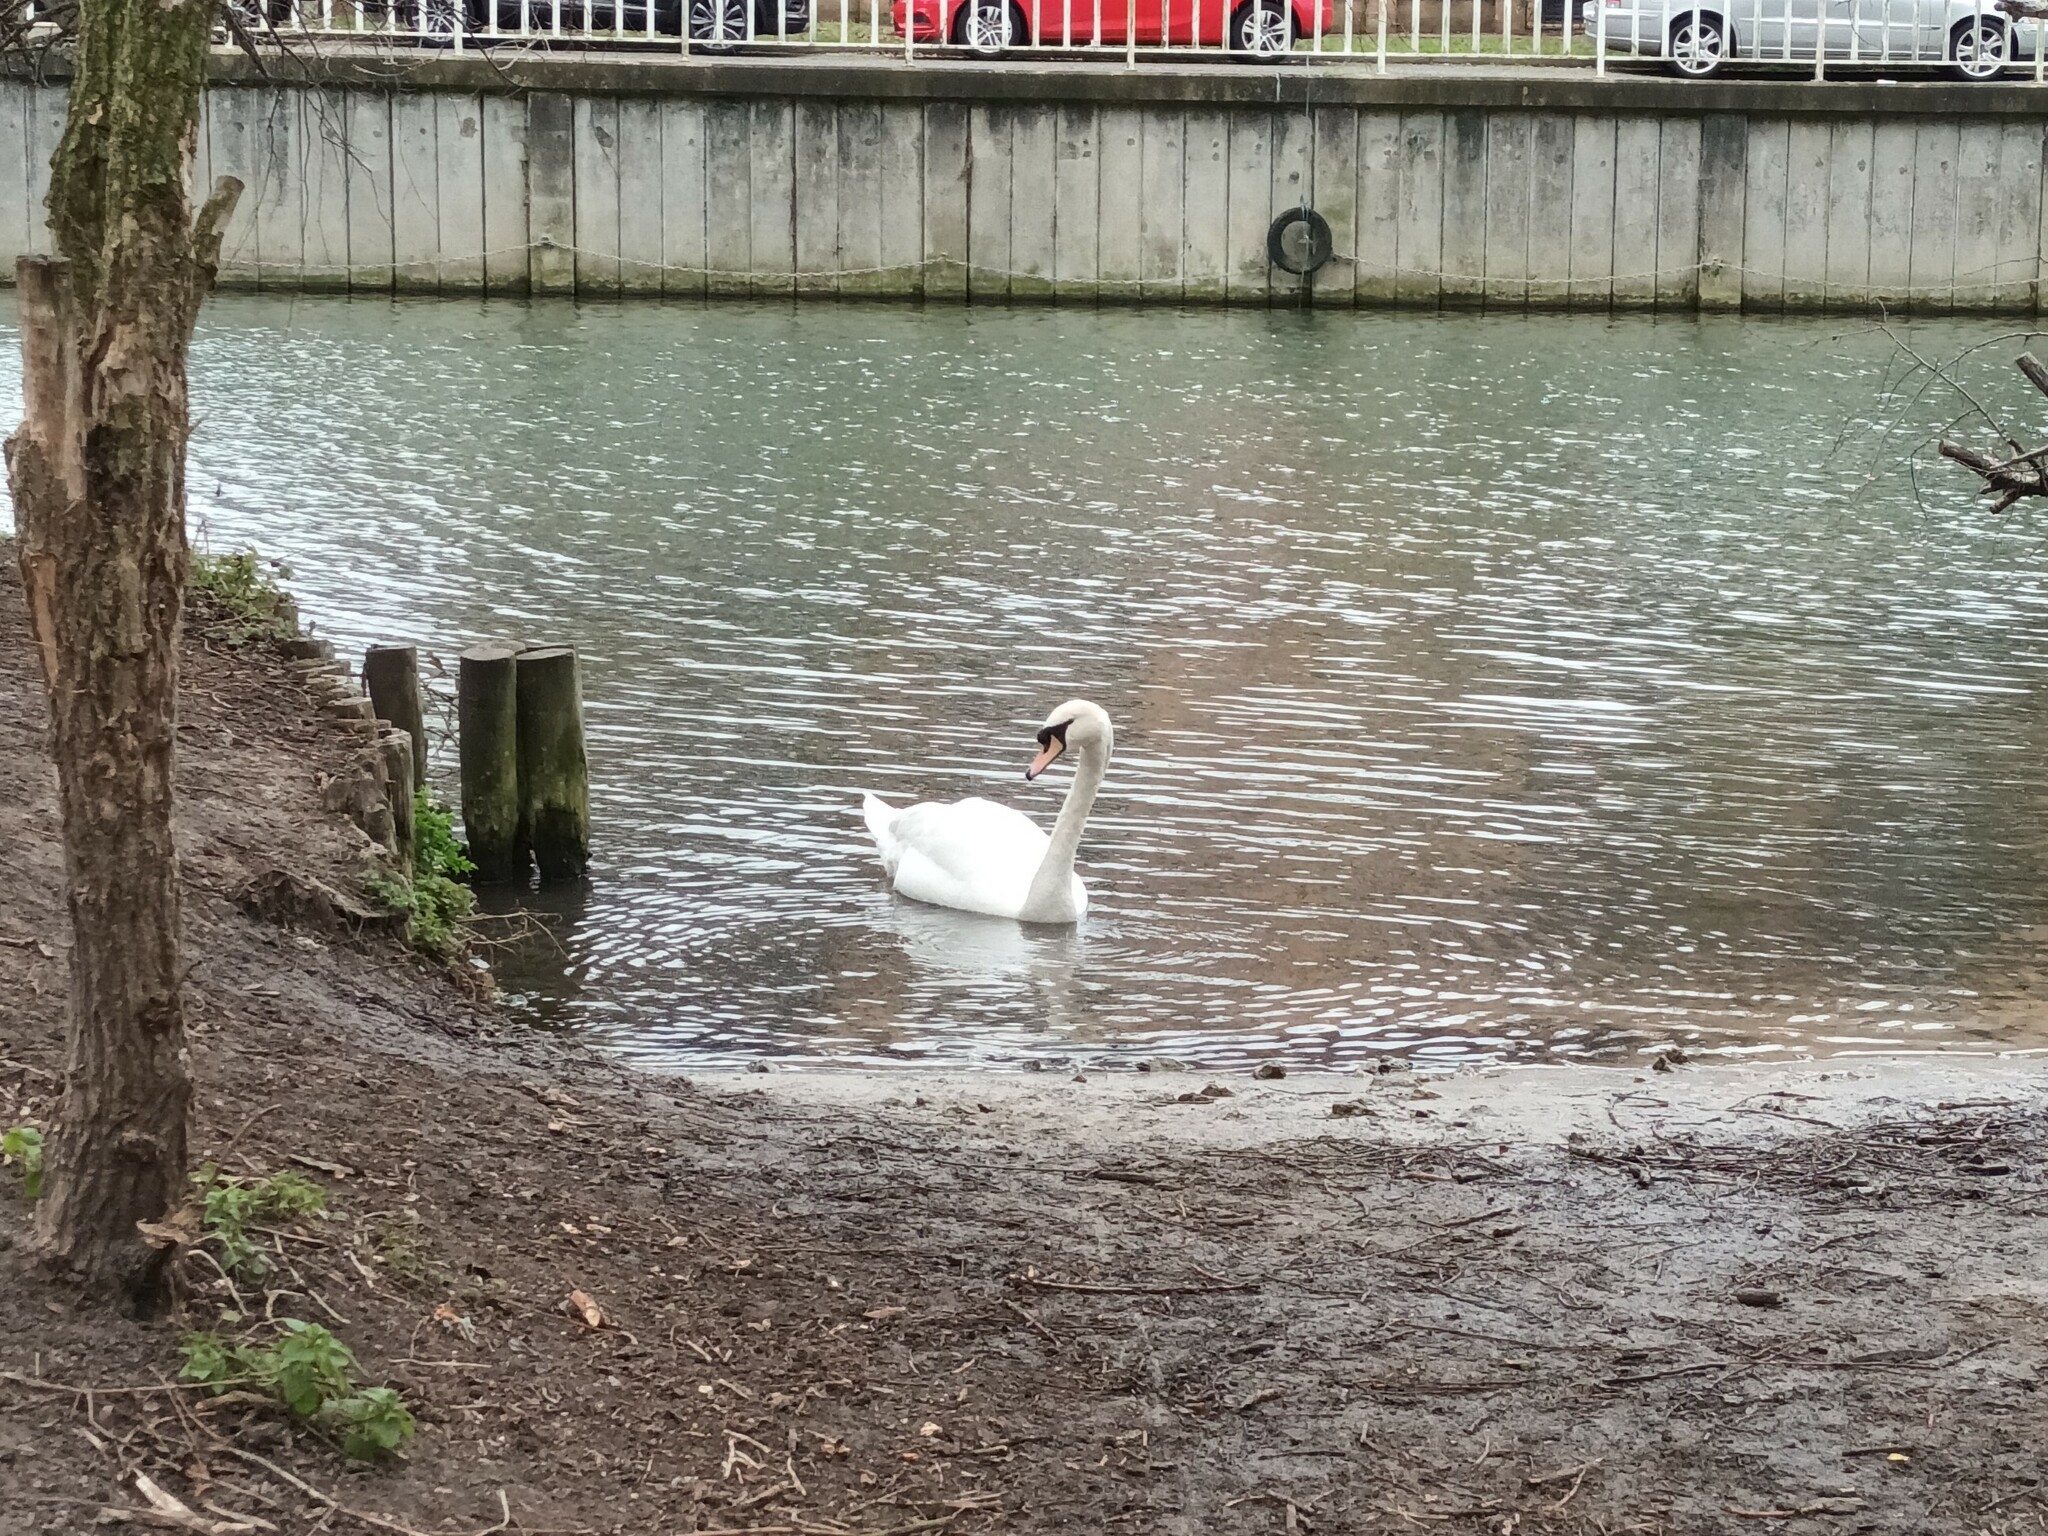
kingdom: Animalia
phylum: Chordata
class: Aves
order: Anseriformes
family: Anatidae
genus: Cygnus
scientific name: Cygnus olor
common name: Mute swan
